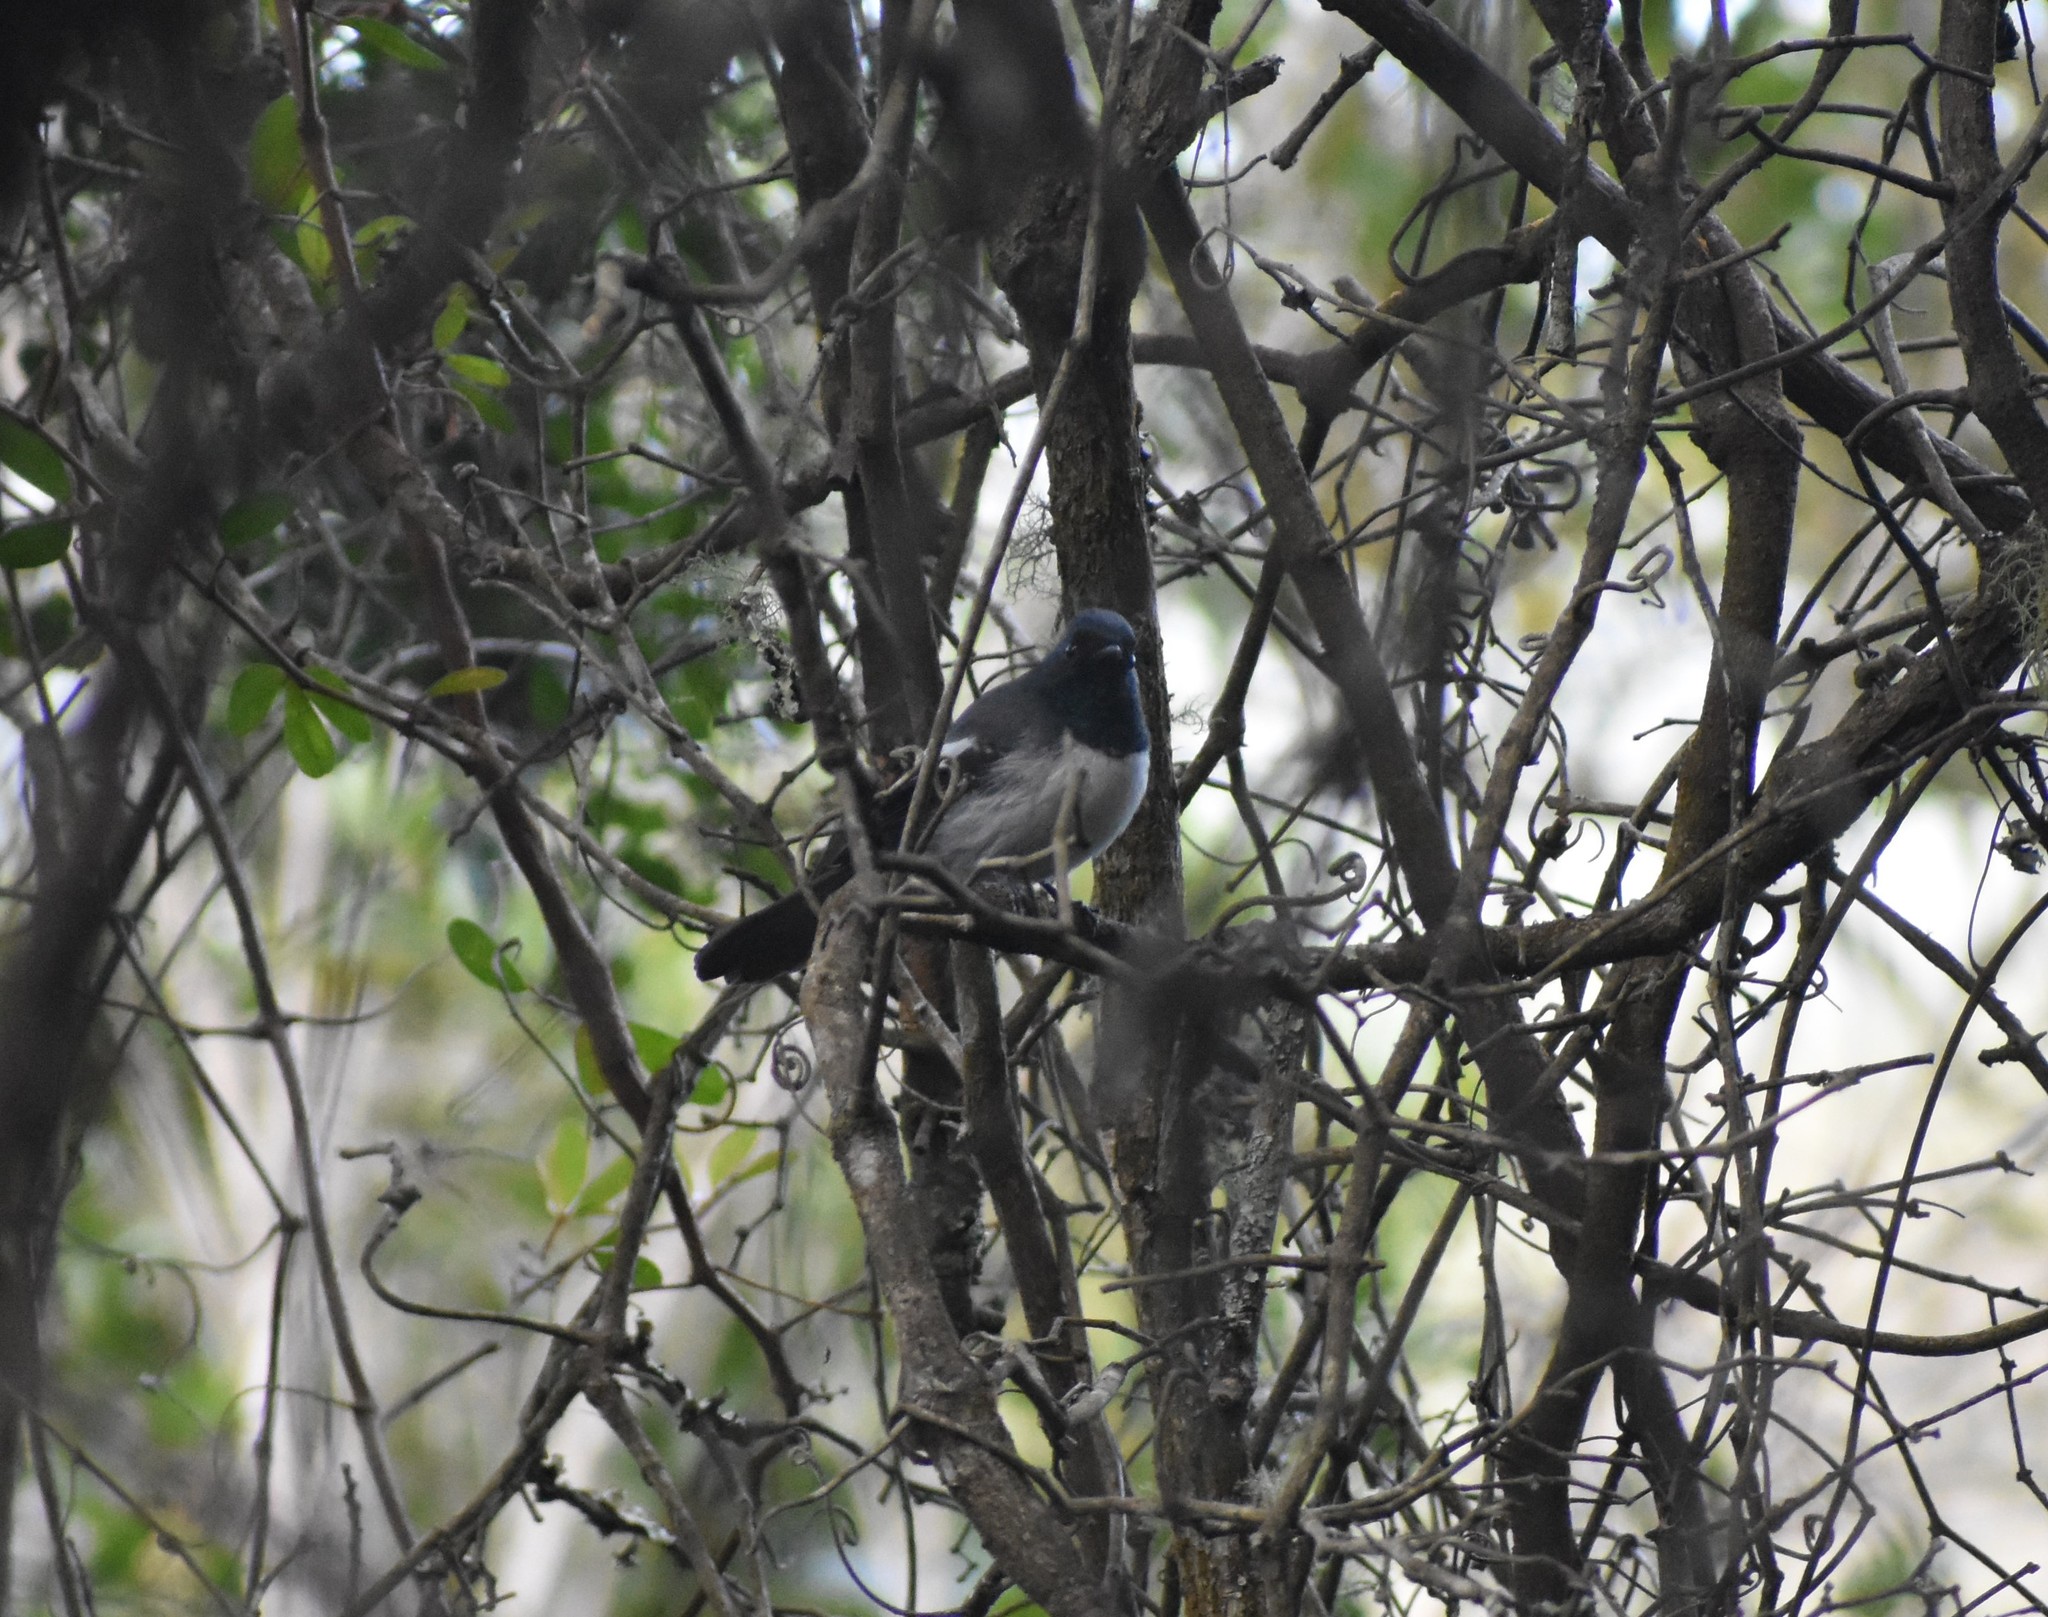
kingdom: Animalia
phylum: Chordata
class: Aves
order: Passeriformes
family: Monarchidae
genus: Trochocercus
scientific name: Trochocercus cyanomelas
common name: Blue-mantled crested flycatcher
